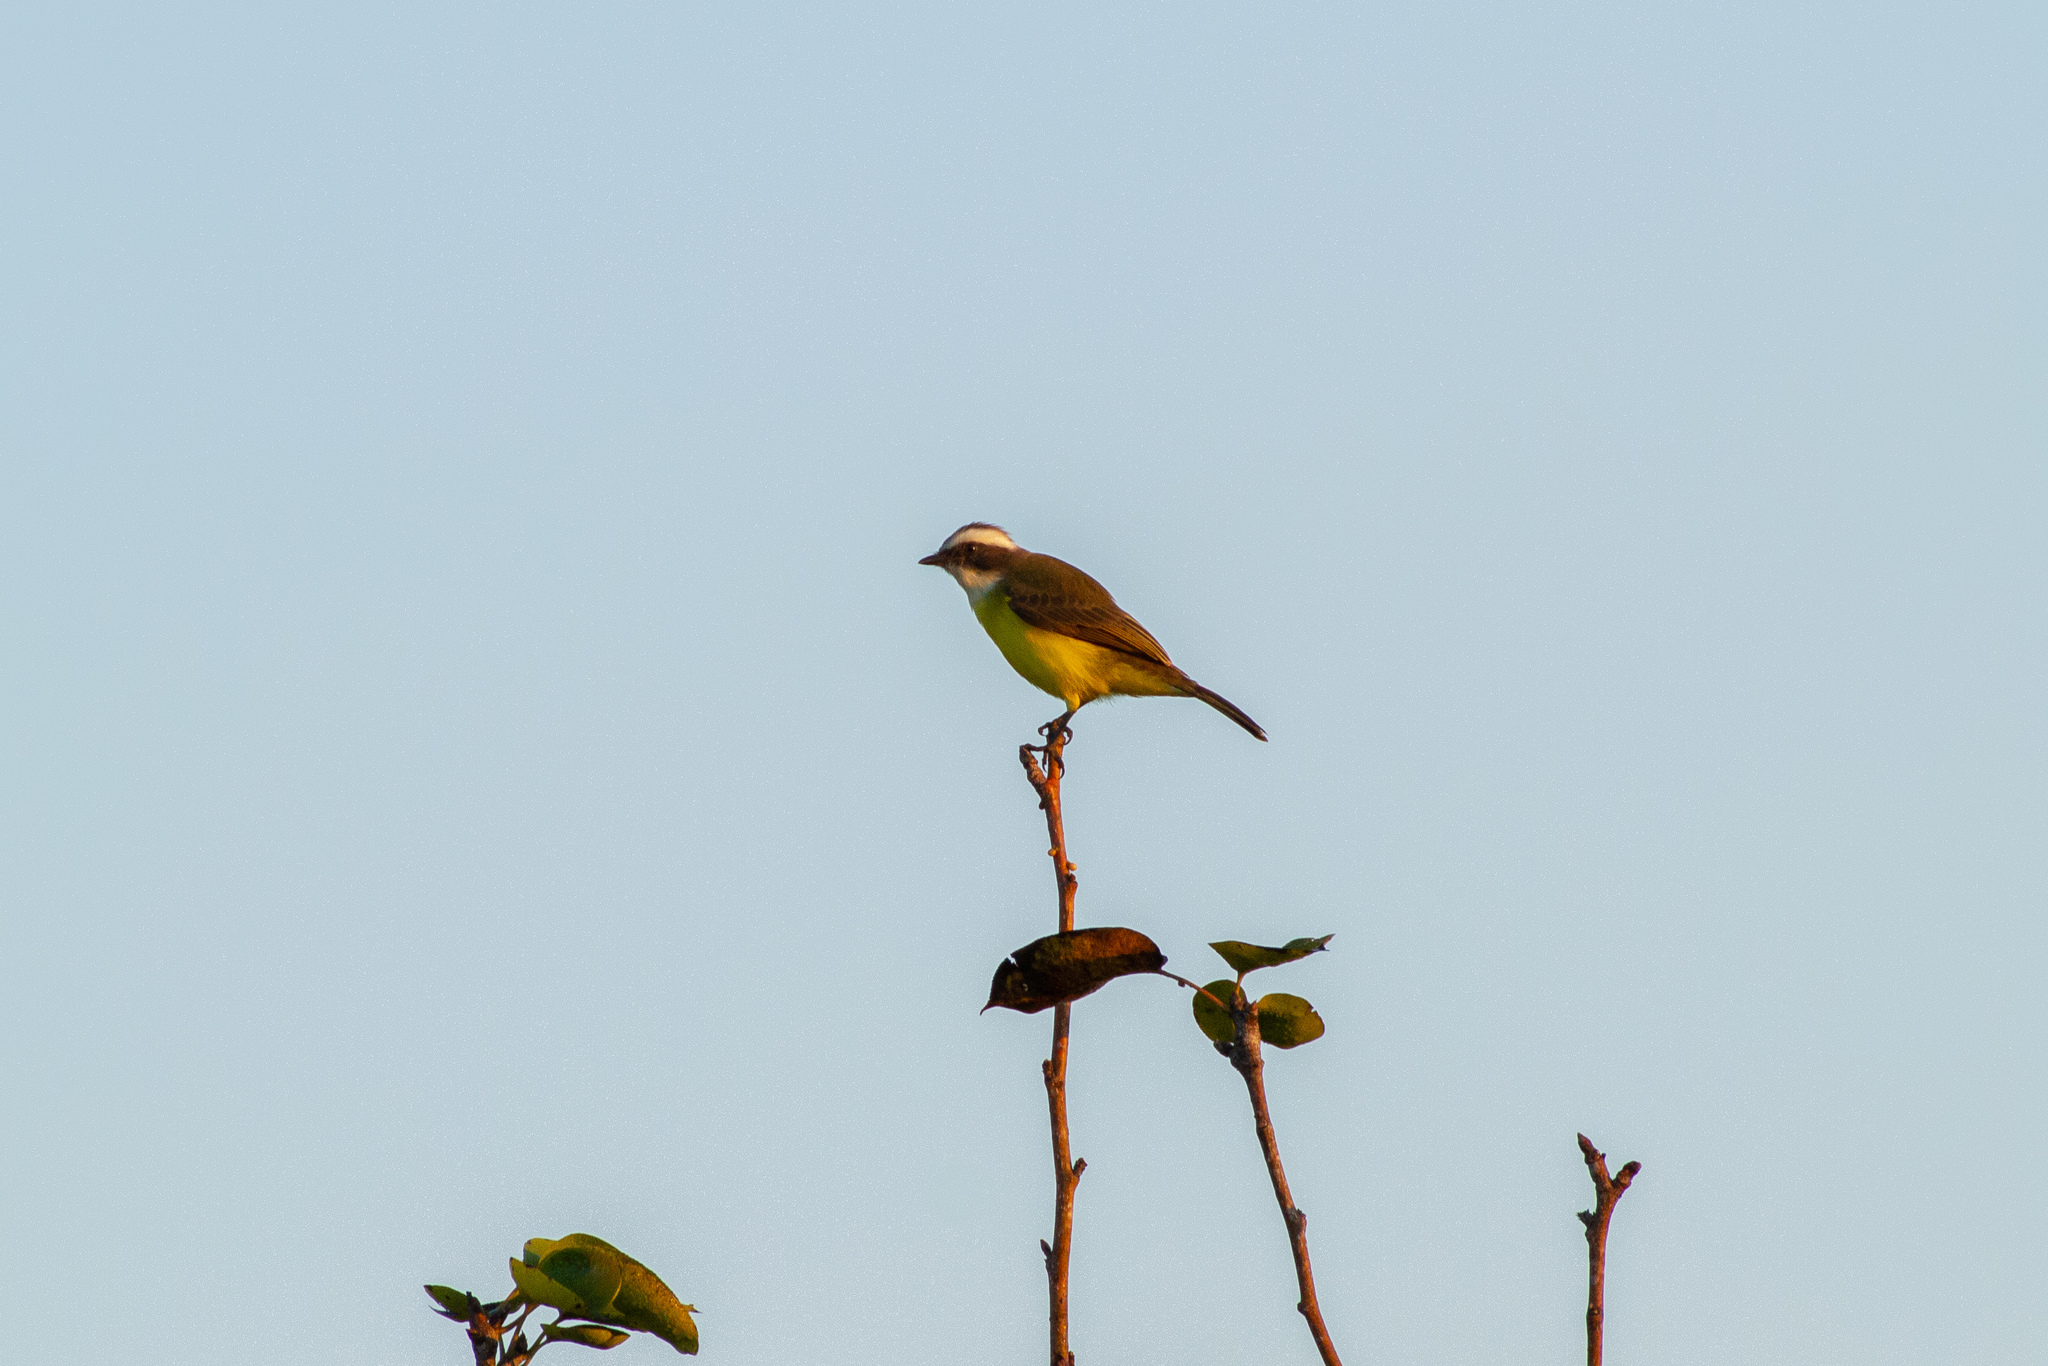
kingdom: Animalia
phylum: Chordata
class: Aves
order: Passeriformes
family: Tyrannidae
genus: Myiozetetes
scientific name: Myiozetetes similis
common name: Social flycatcher
